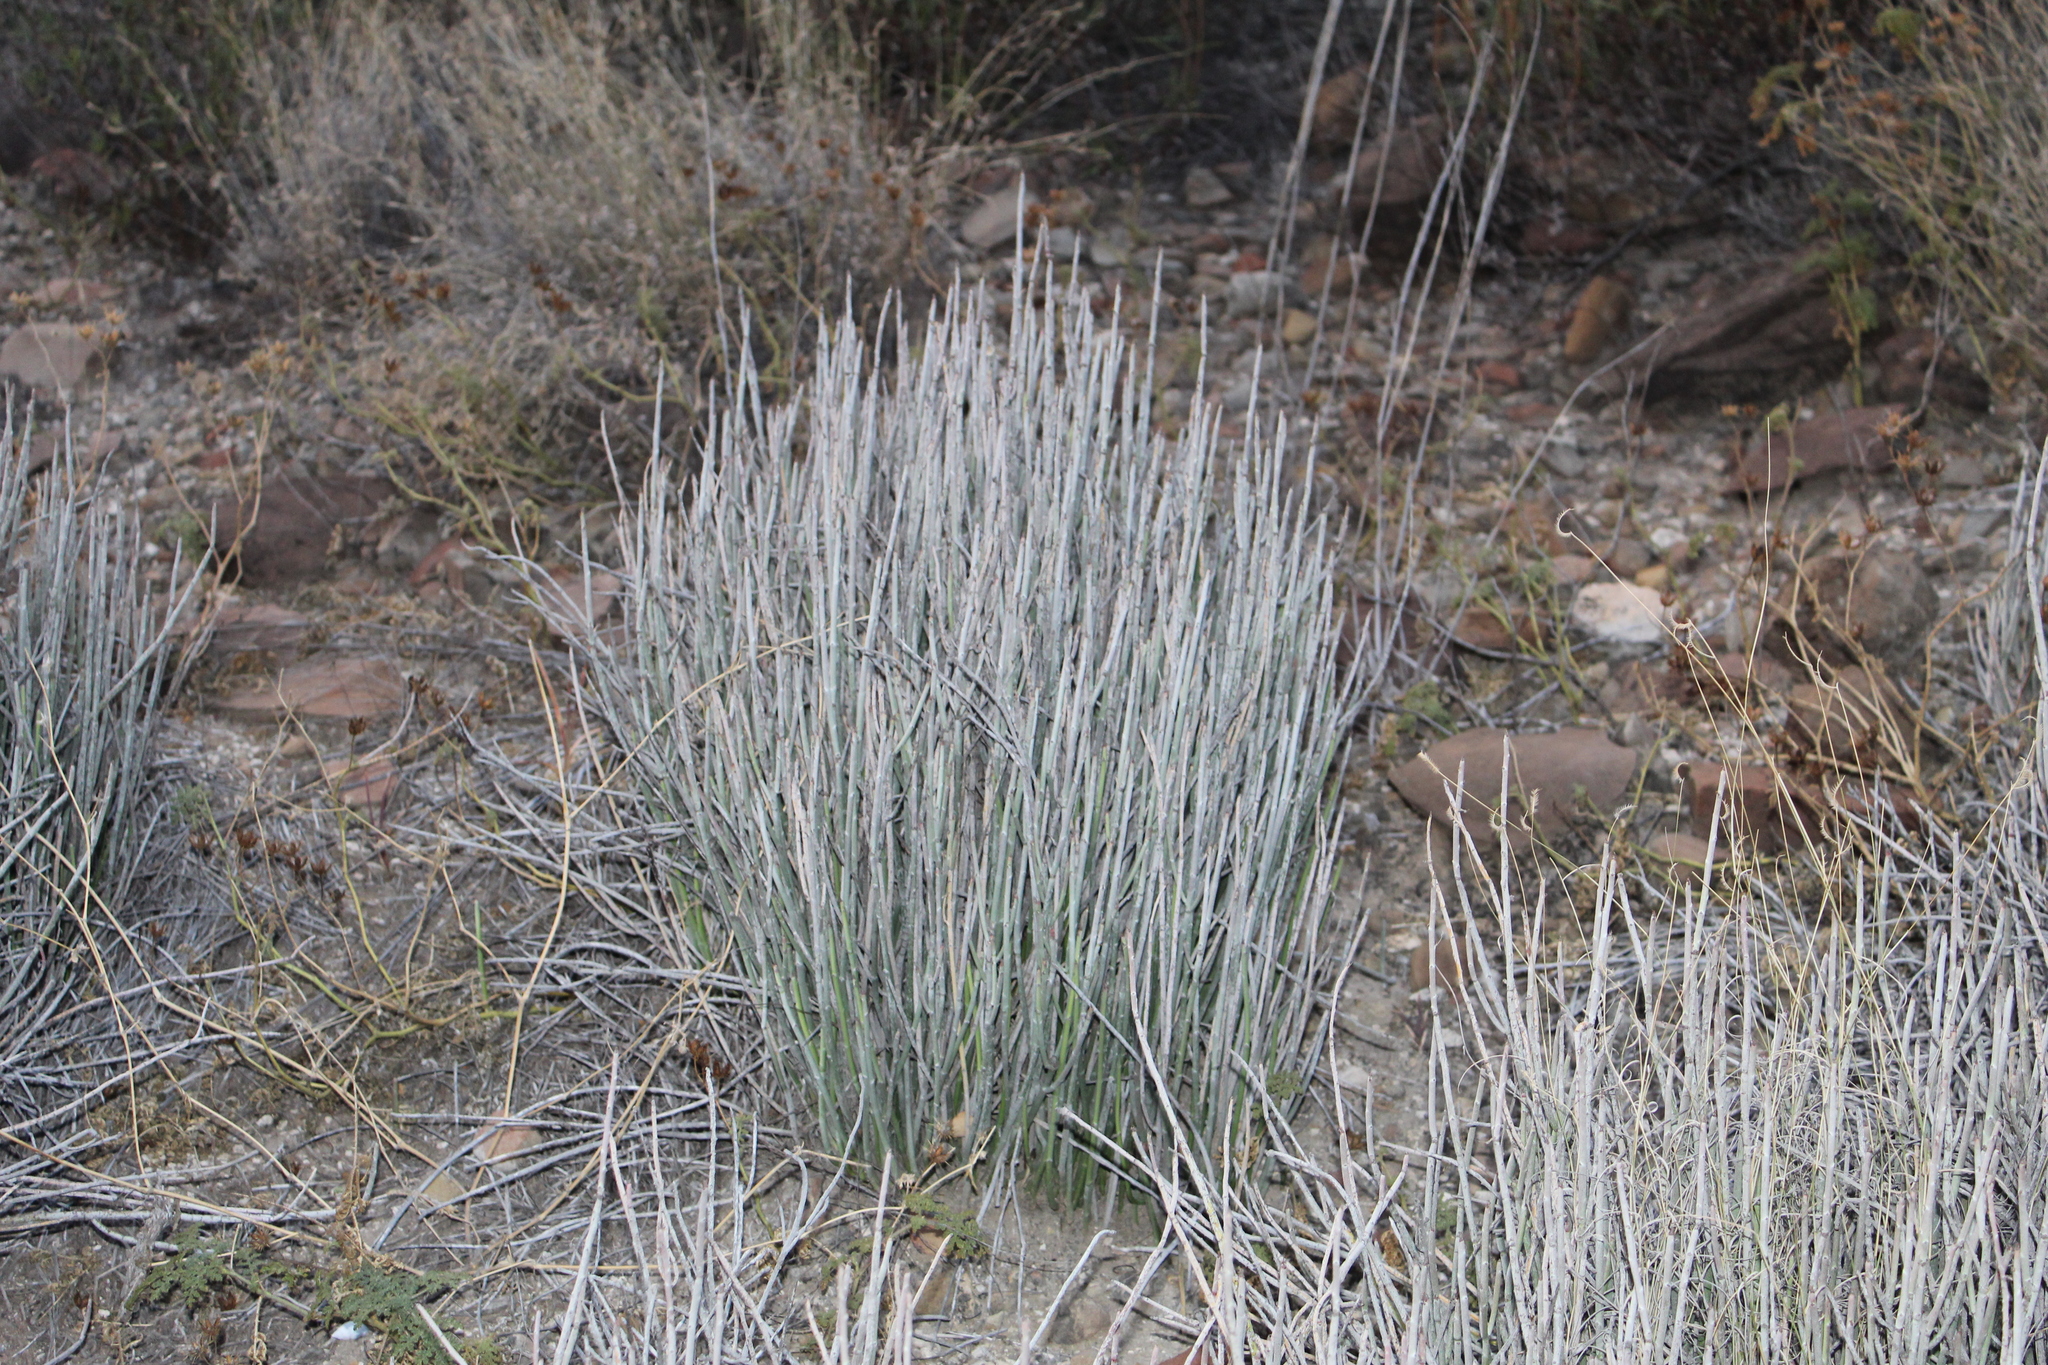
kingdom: Plantae
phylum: Tracheophyta
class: Magnoliopsida
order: Malpighiales
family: Euphorbiaceae
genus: Euphorbia
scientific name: Euphorbia antisyphilitica
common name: Candelilla
